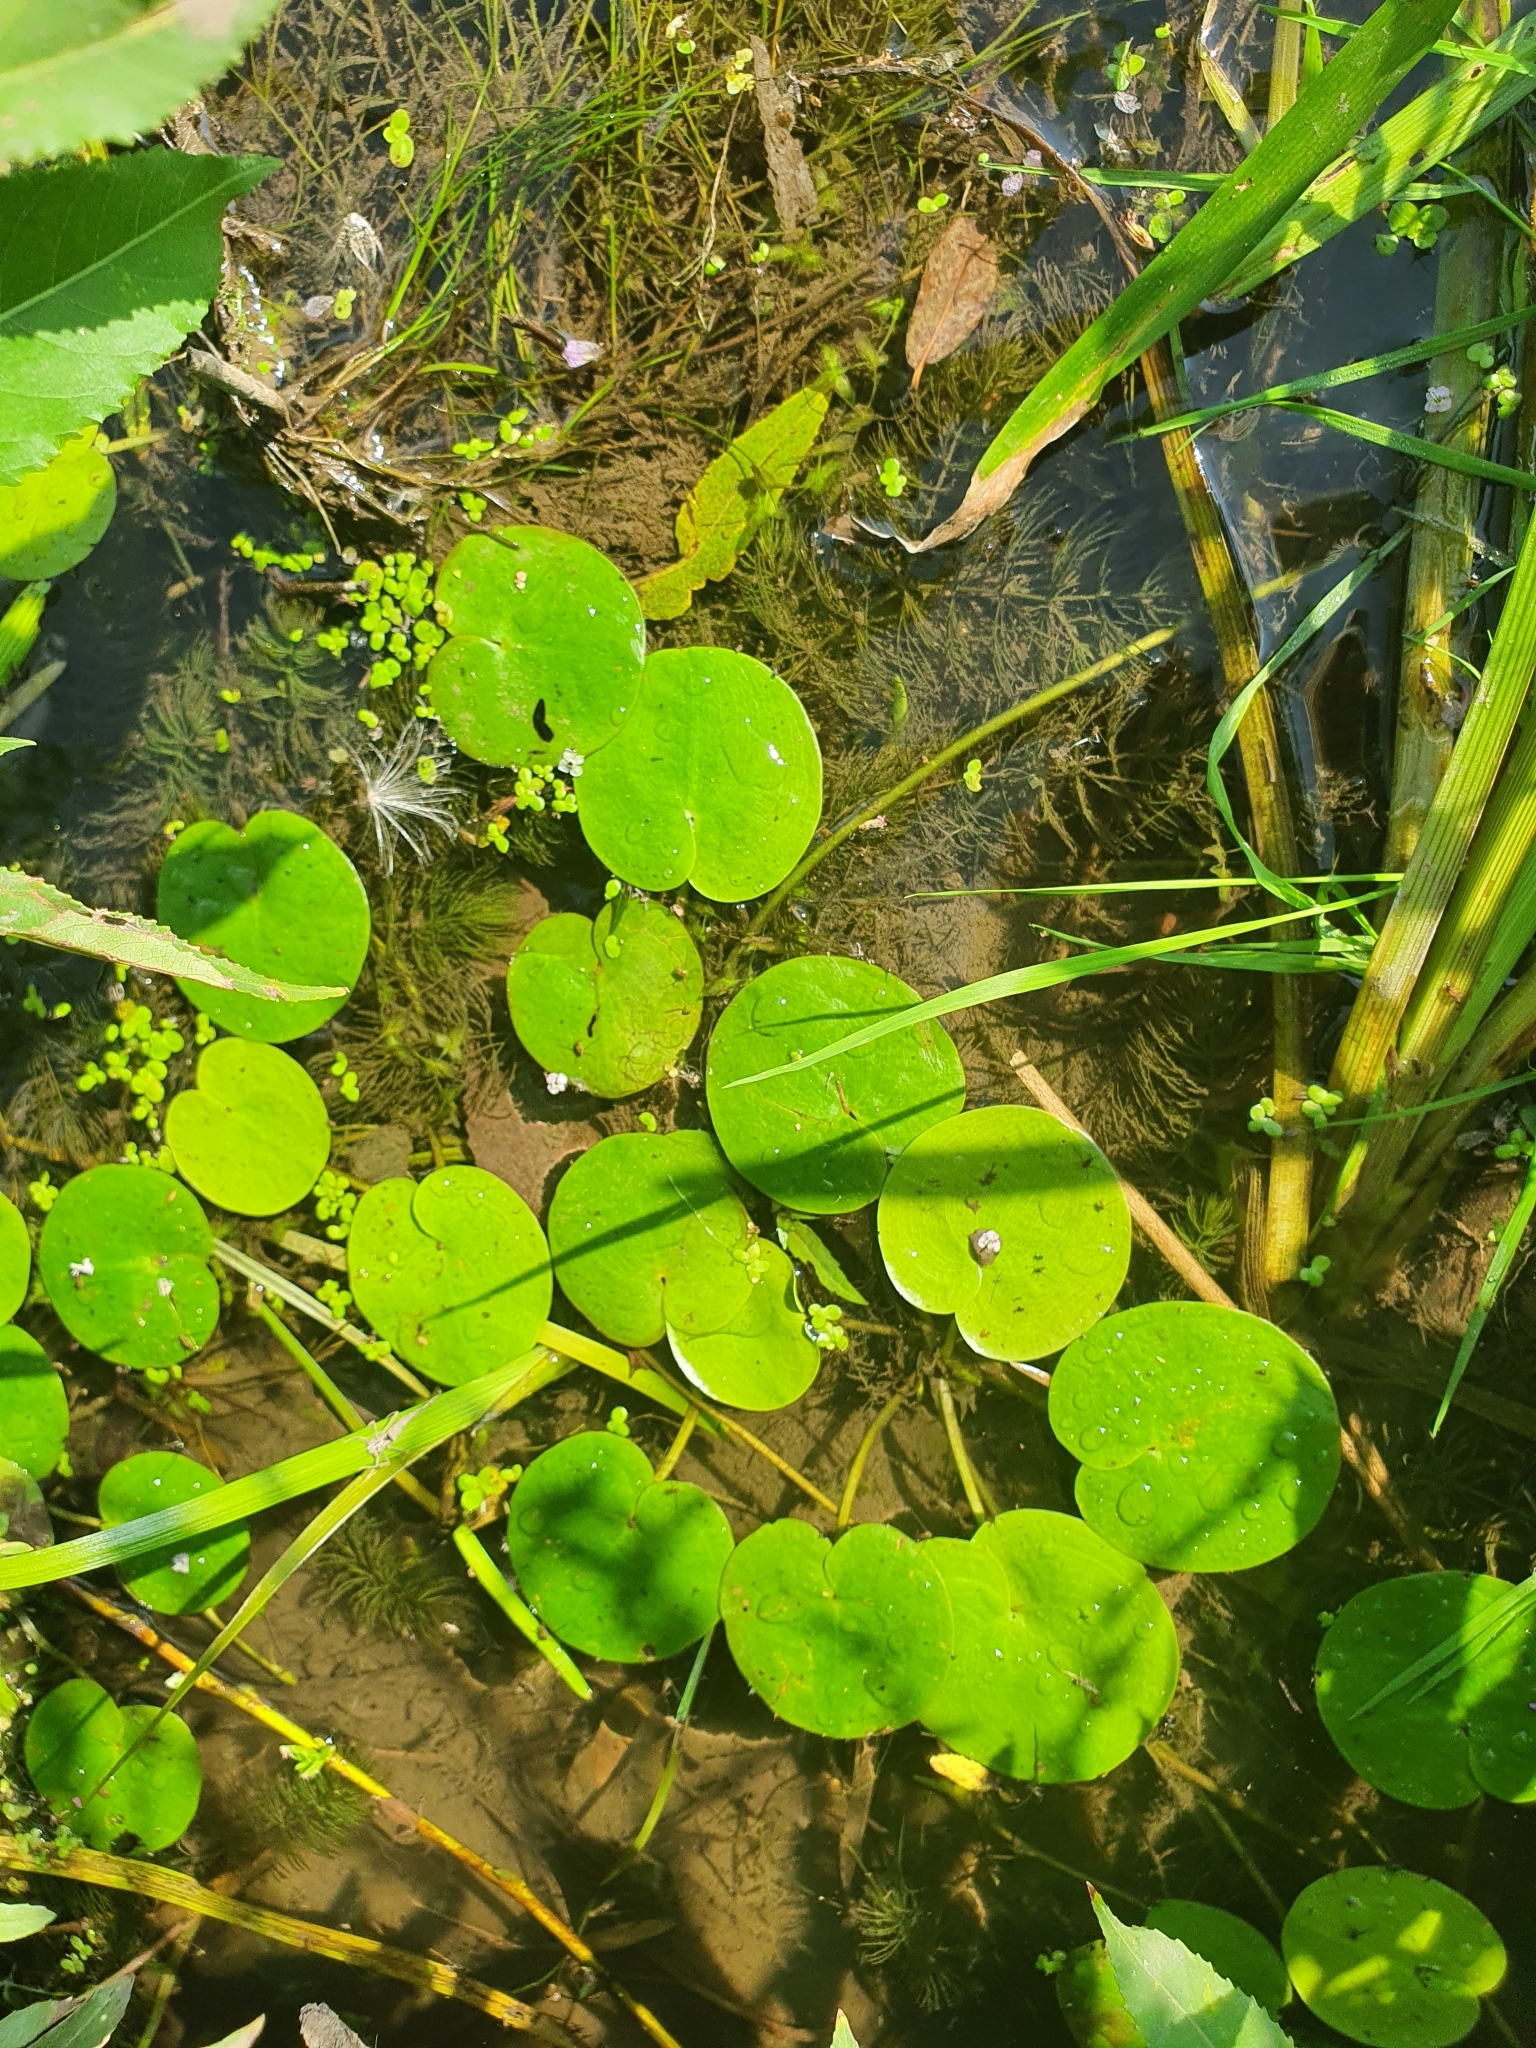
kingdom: Plantae
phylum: Tracheophyta
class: Liliopsida
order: Alismatales
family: Hydrocharitaceae
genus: Hydrocharis
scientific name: Hydrocharis morsus-ranae
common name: Frogbit
